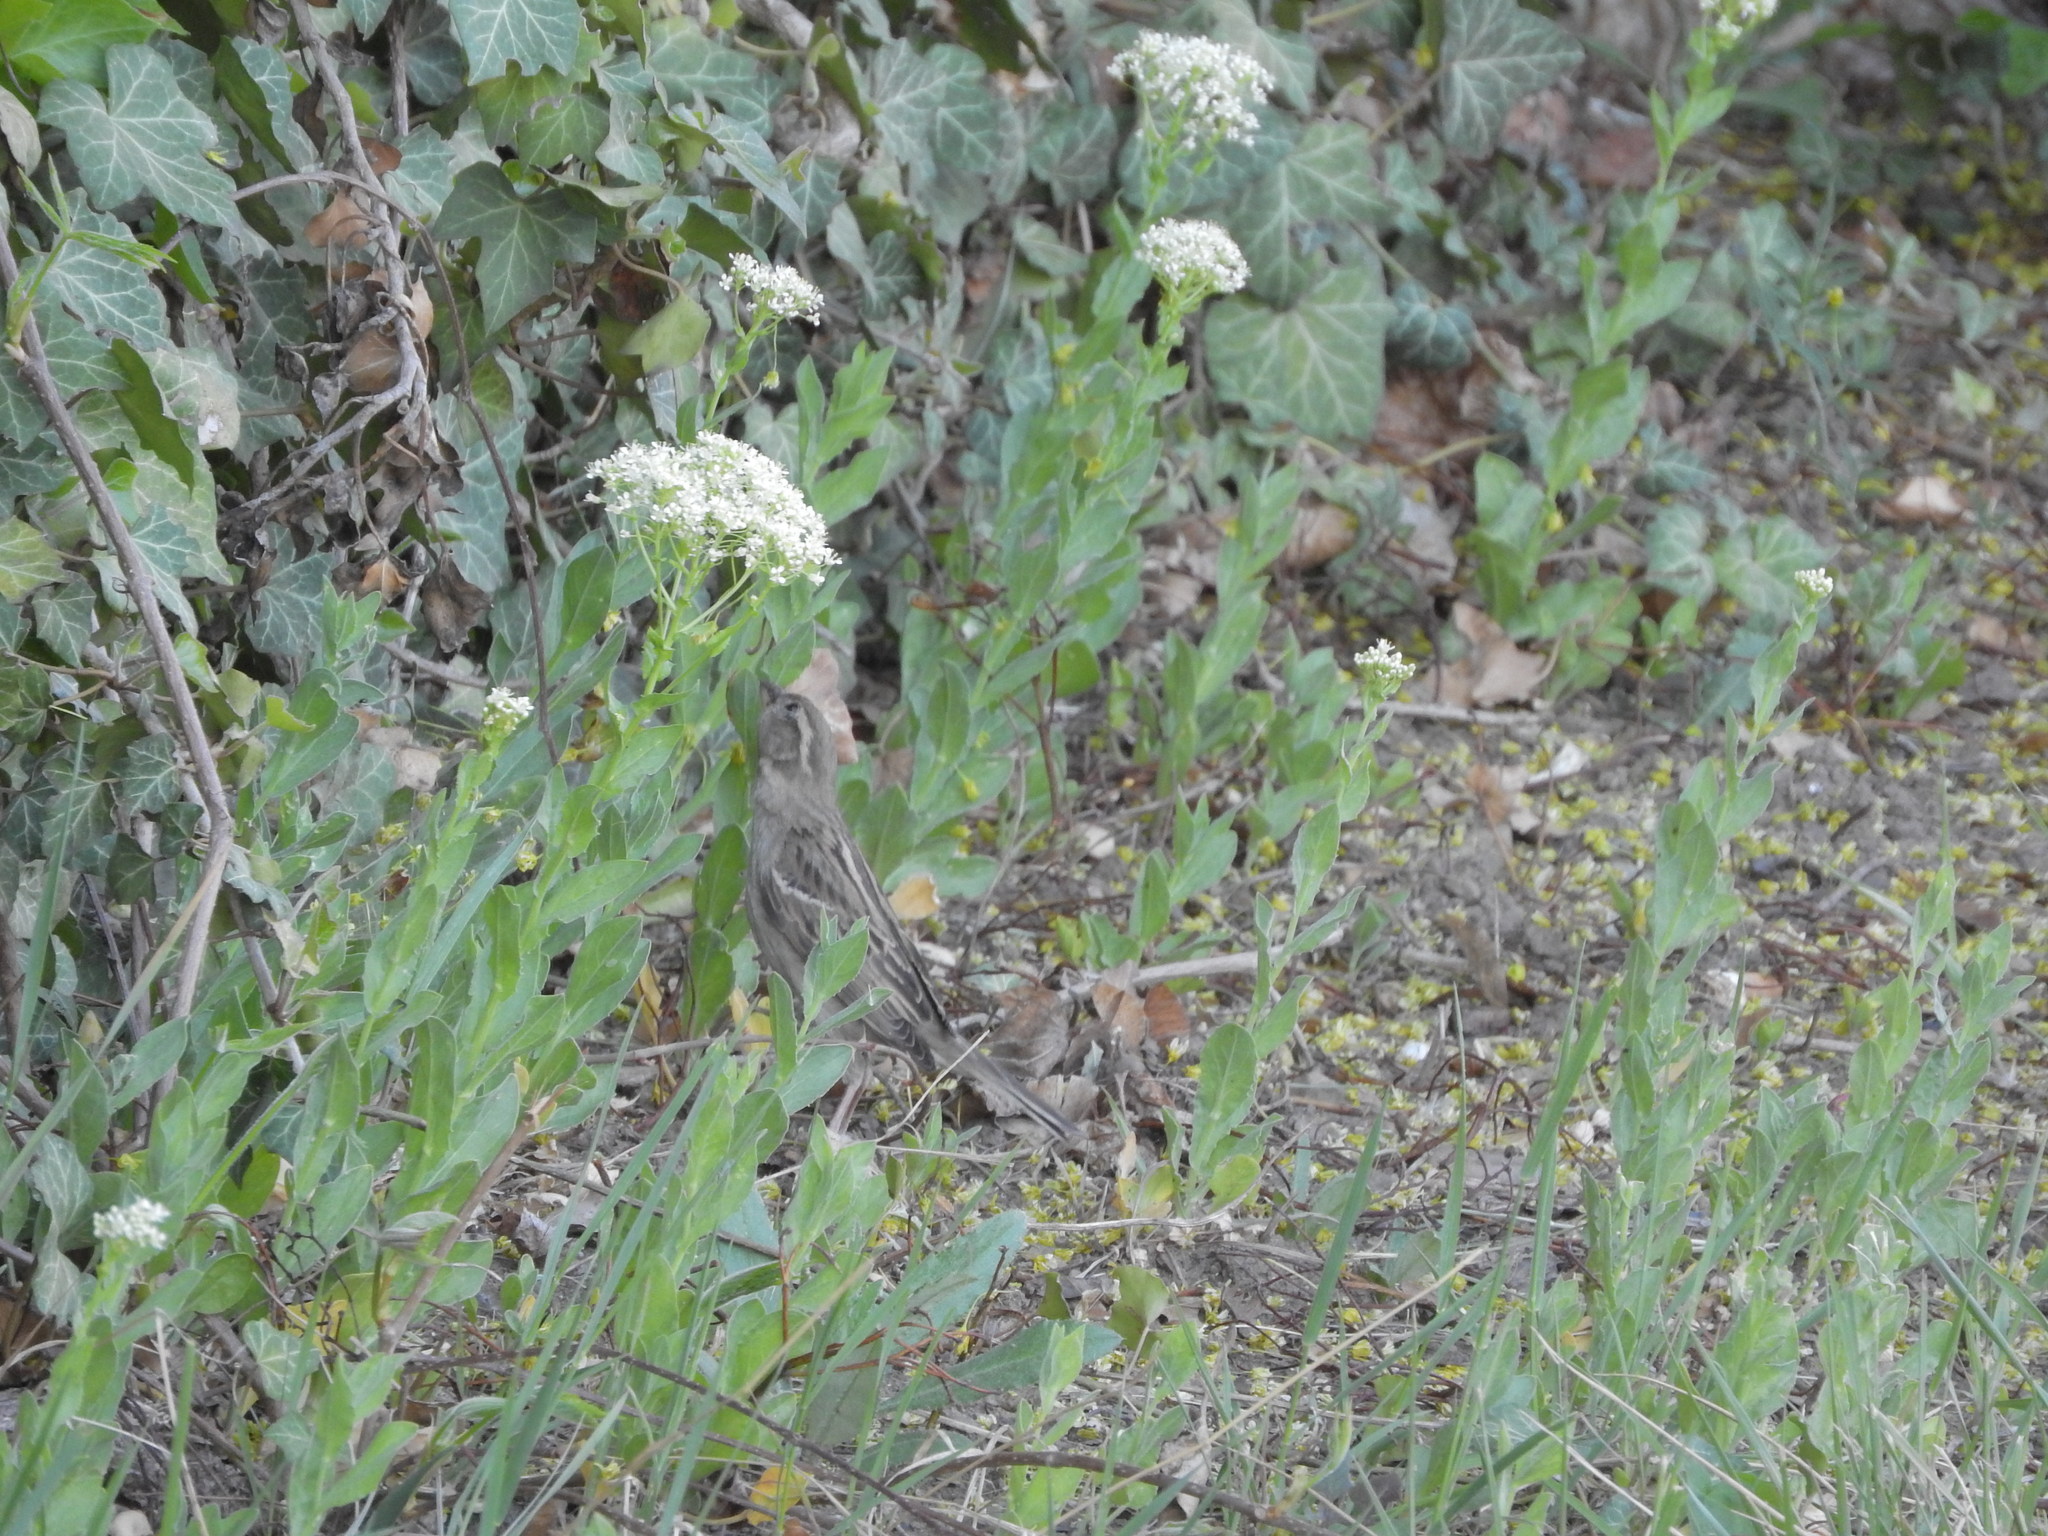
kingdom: Plantae
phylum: Tracheophyta
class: Magnoliopsida
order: Brassicales
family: Brassicaceae
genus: Lepidium
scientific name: Lepidium draba
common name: Hoary cress
